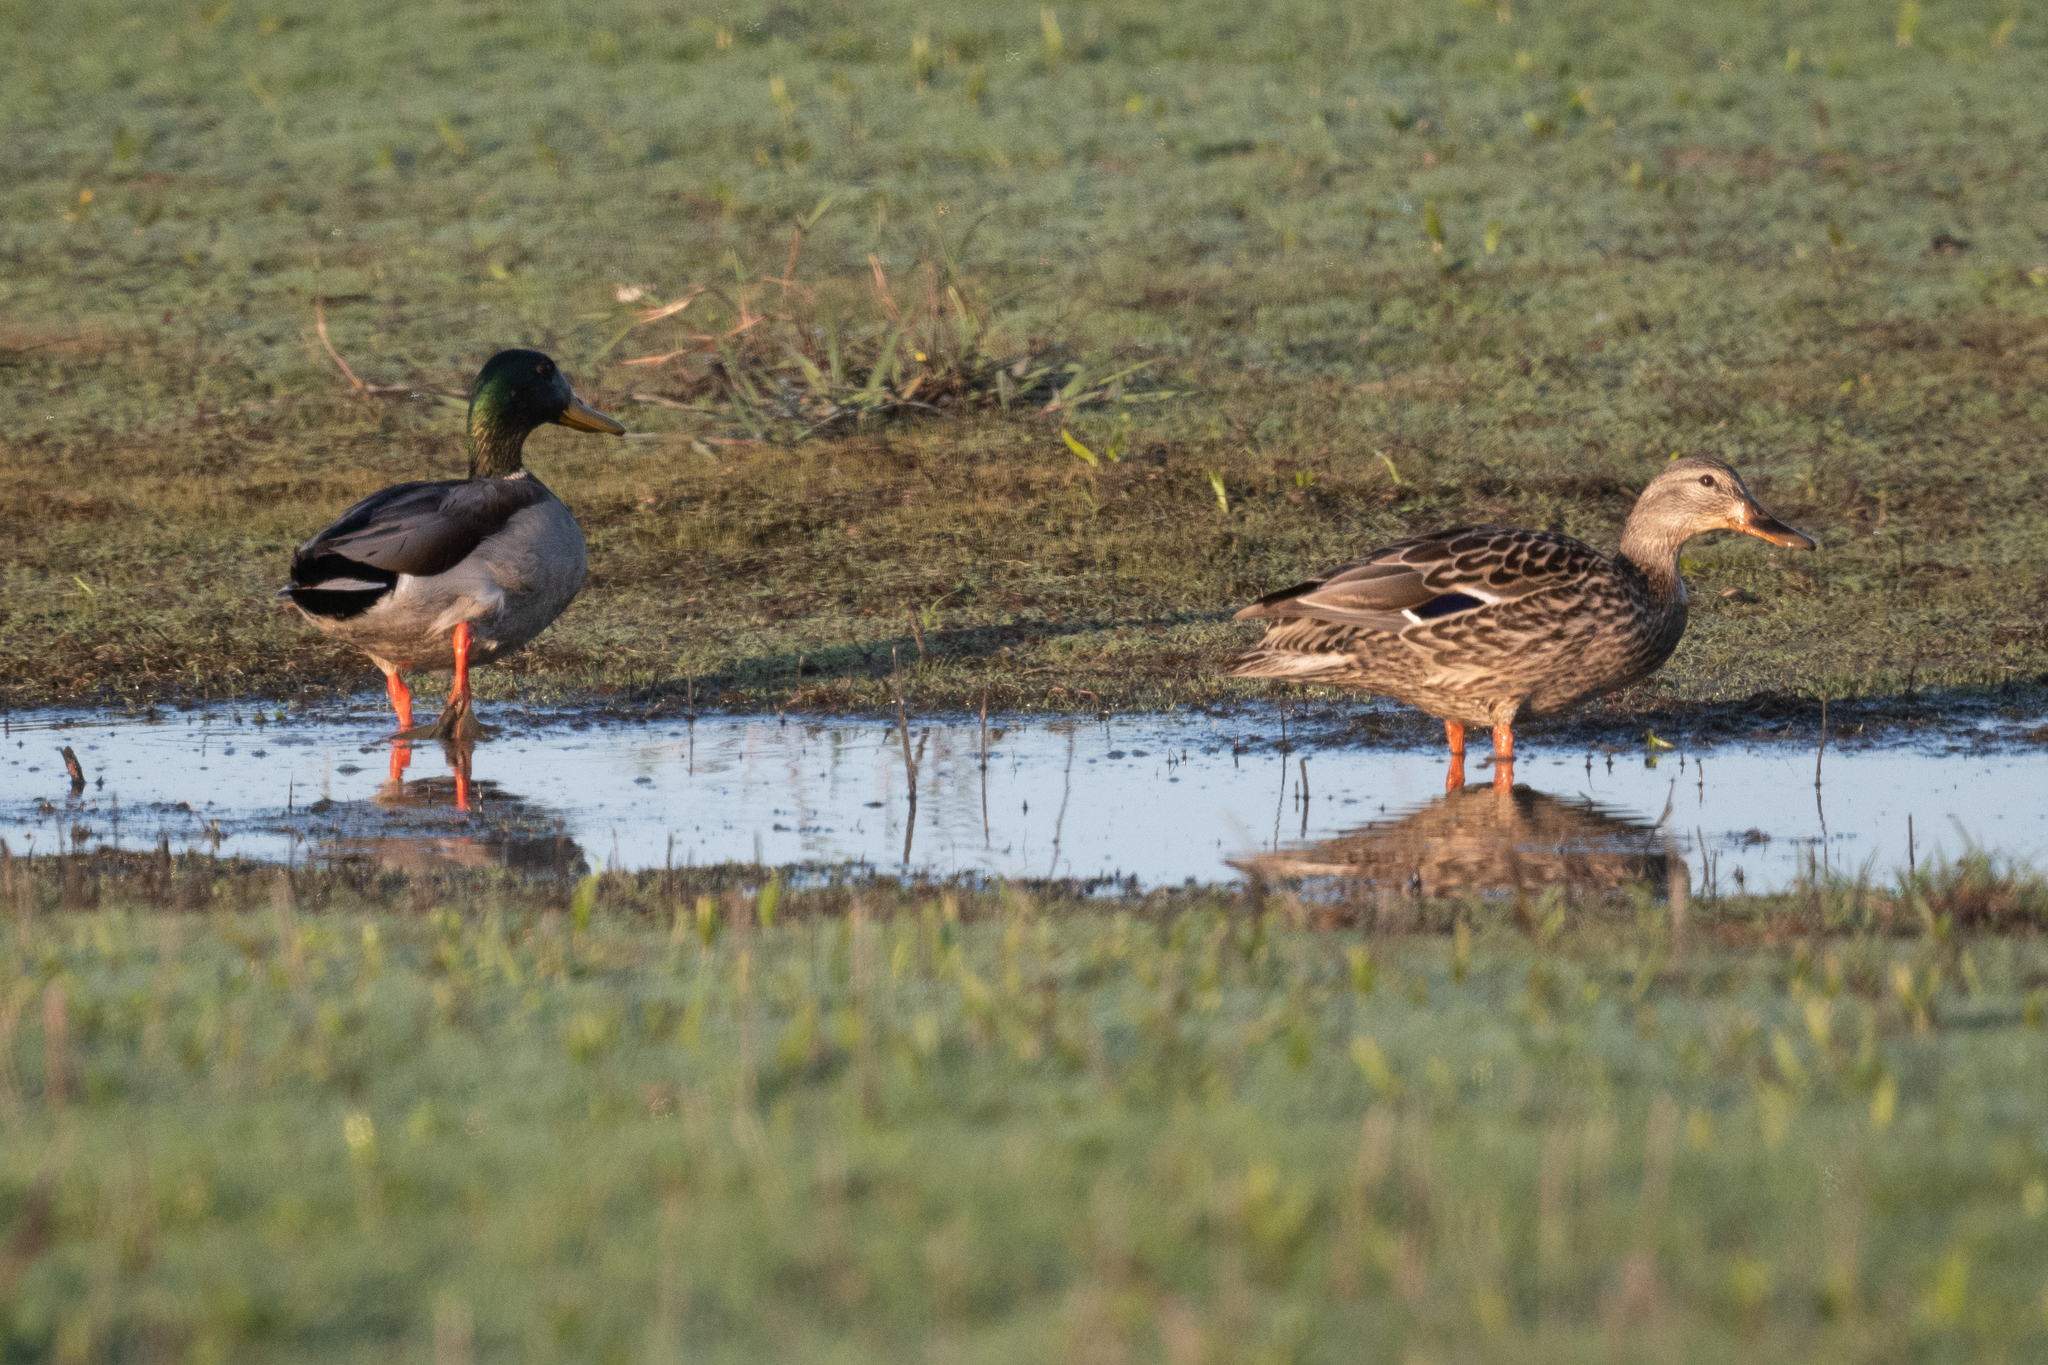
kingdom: Animalia
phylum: Chordata
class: Aves
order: Anseriformes
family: Anatidae
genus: Anas
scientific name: Anas platyrhynchos
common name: Mallard
